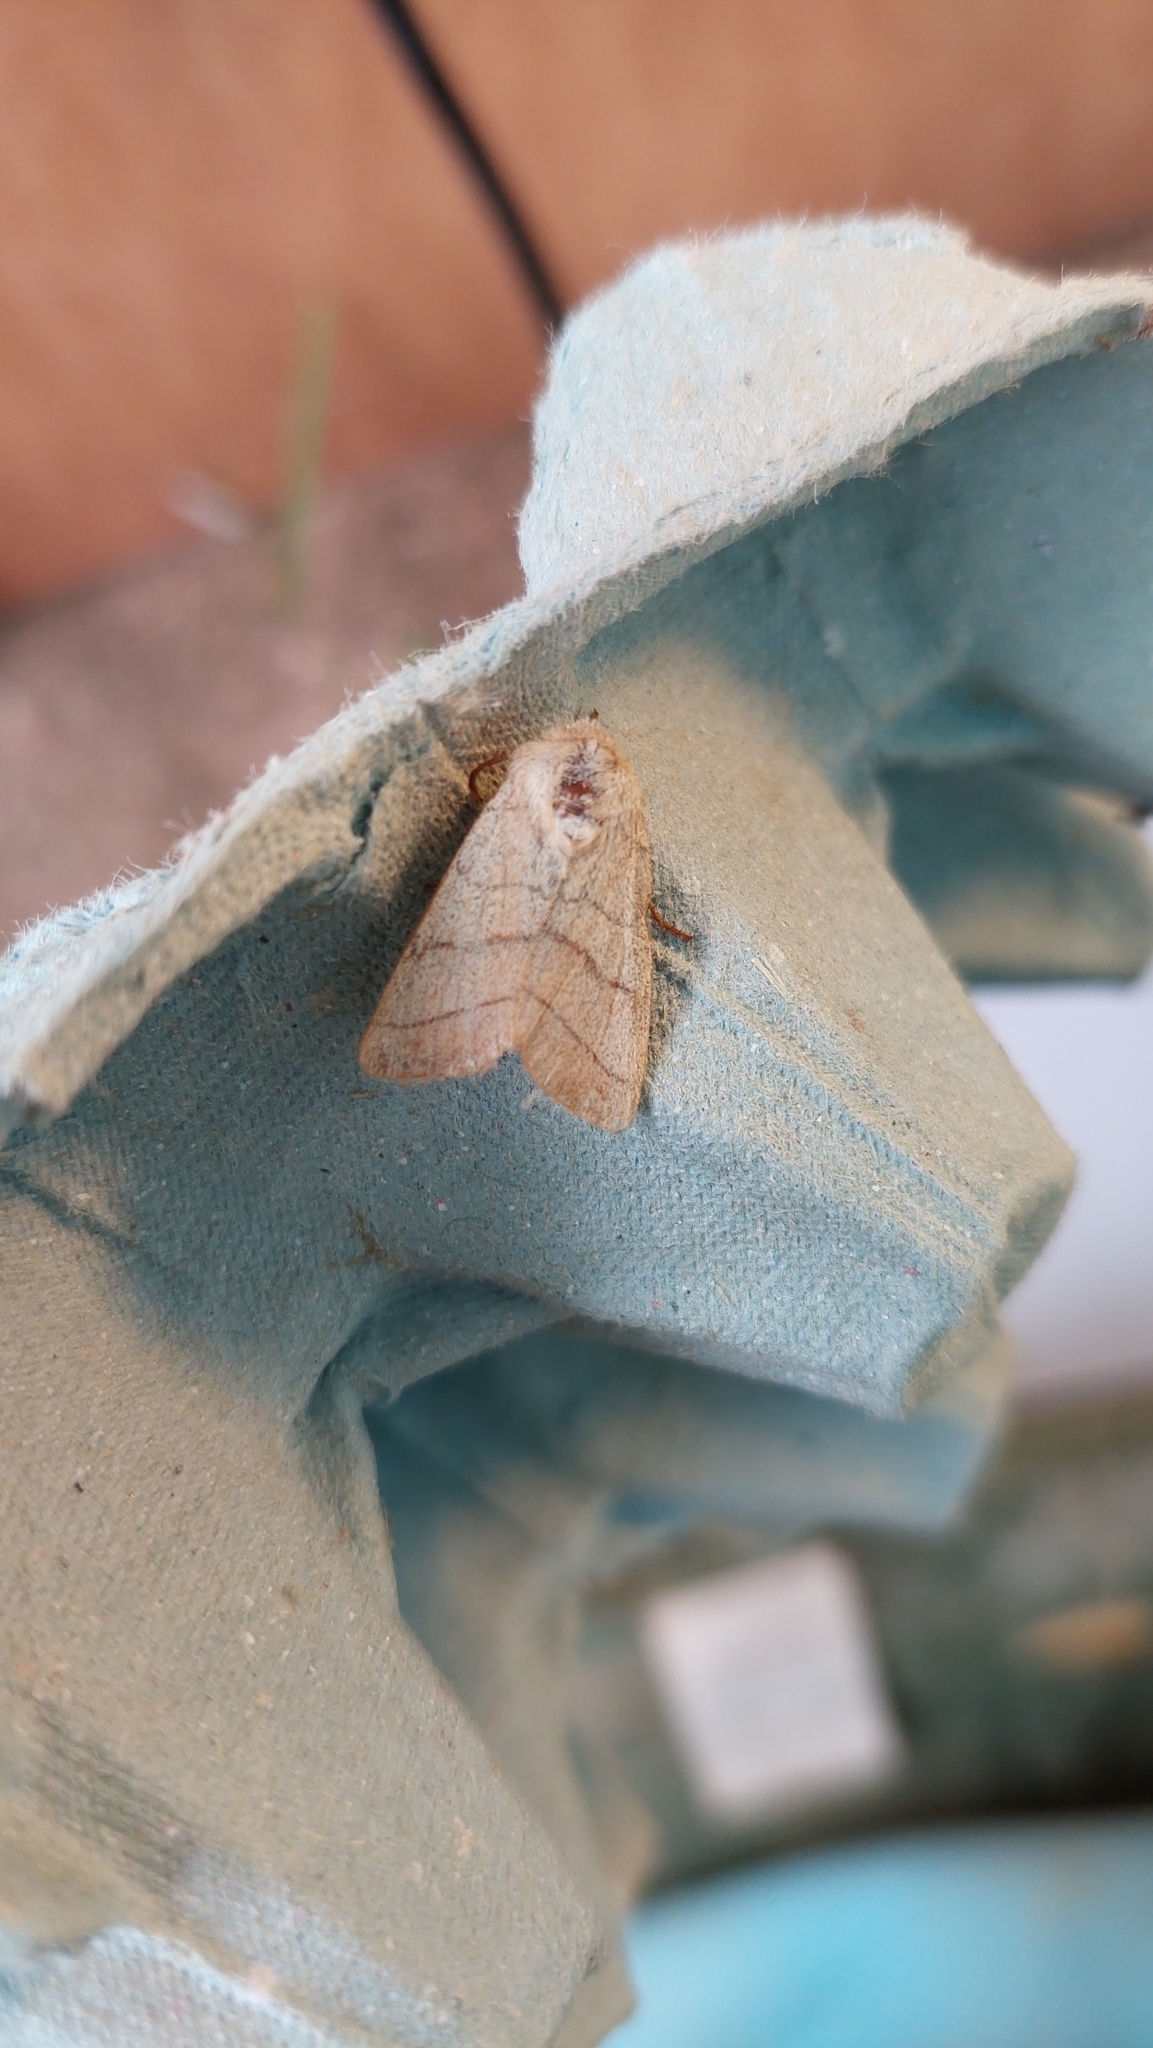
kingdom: Animalia
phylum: Arthropoda
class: Insecta
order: Lepidoptera
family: Noctuidae
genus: Charanyca
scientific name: Charanyca trigrammica
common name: Treble lines
